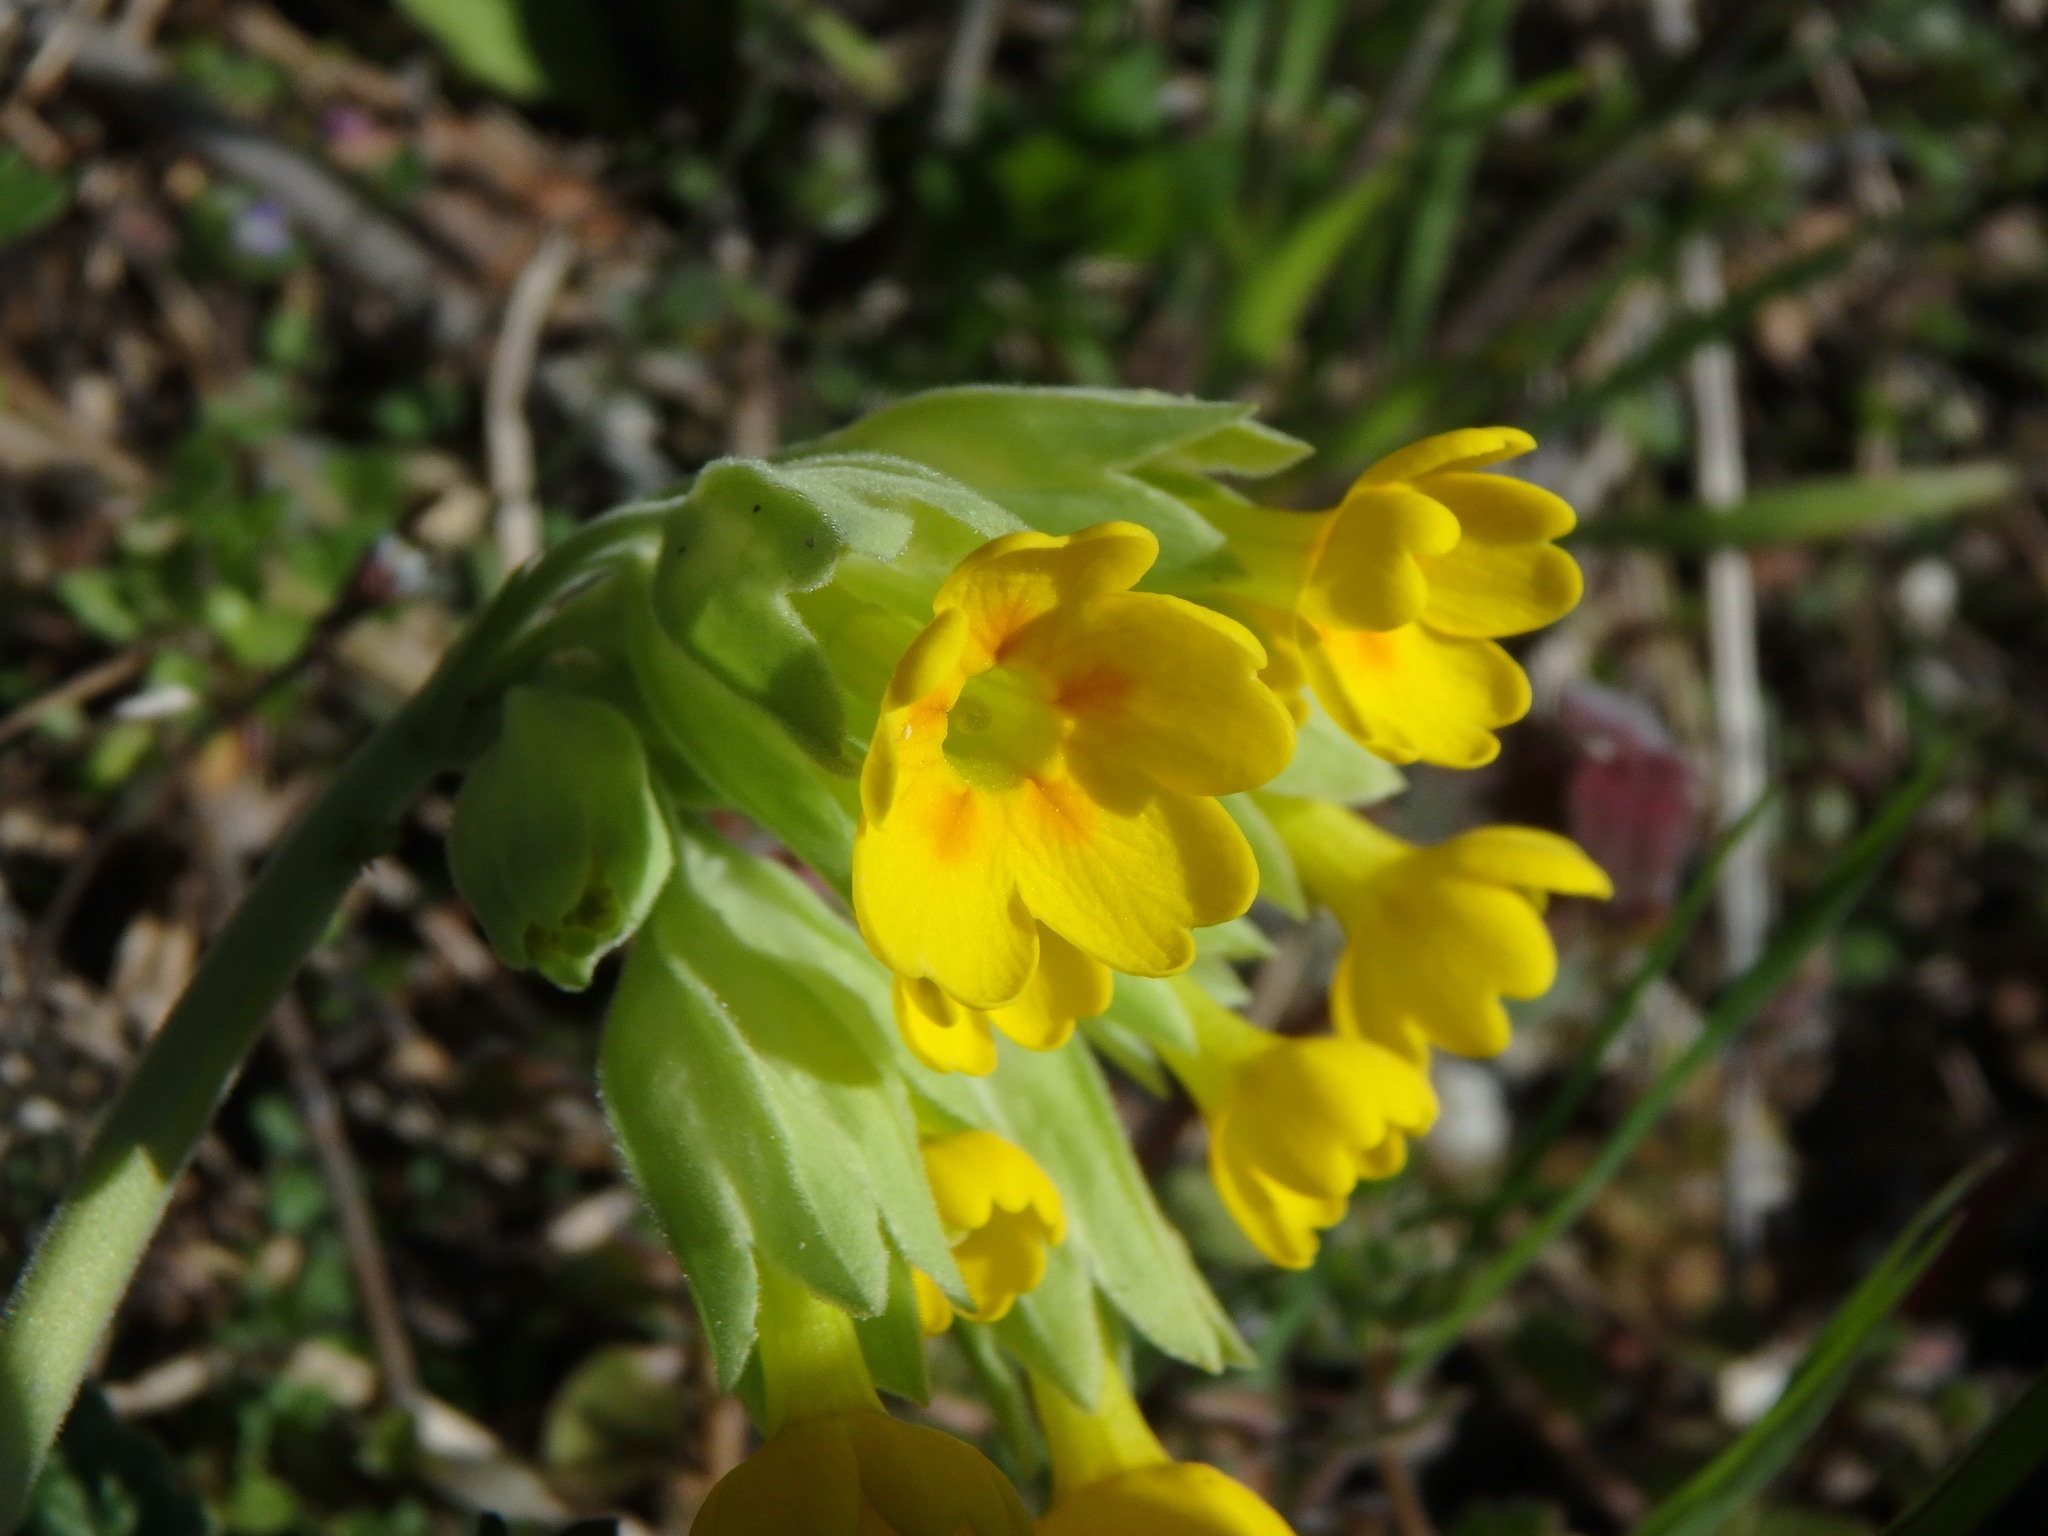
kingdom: Plantae
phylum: Tracheophyta
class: Magnoliopsida
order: Ericales
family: Primulaceae
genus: Primula
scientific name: Primula veris
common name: Cowslip
